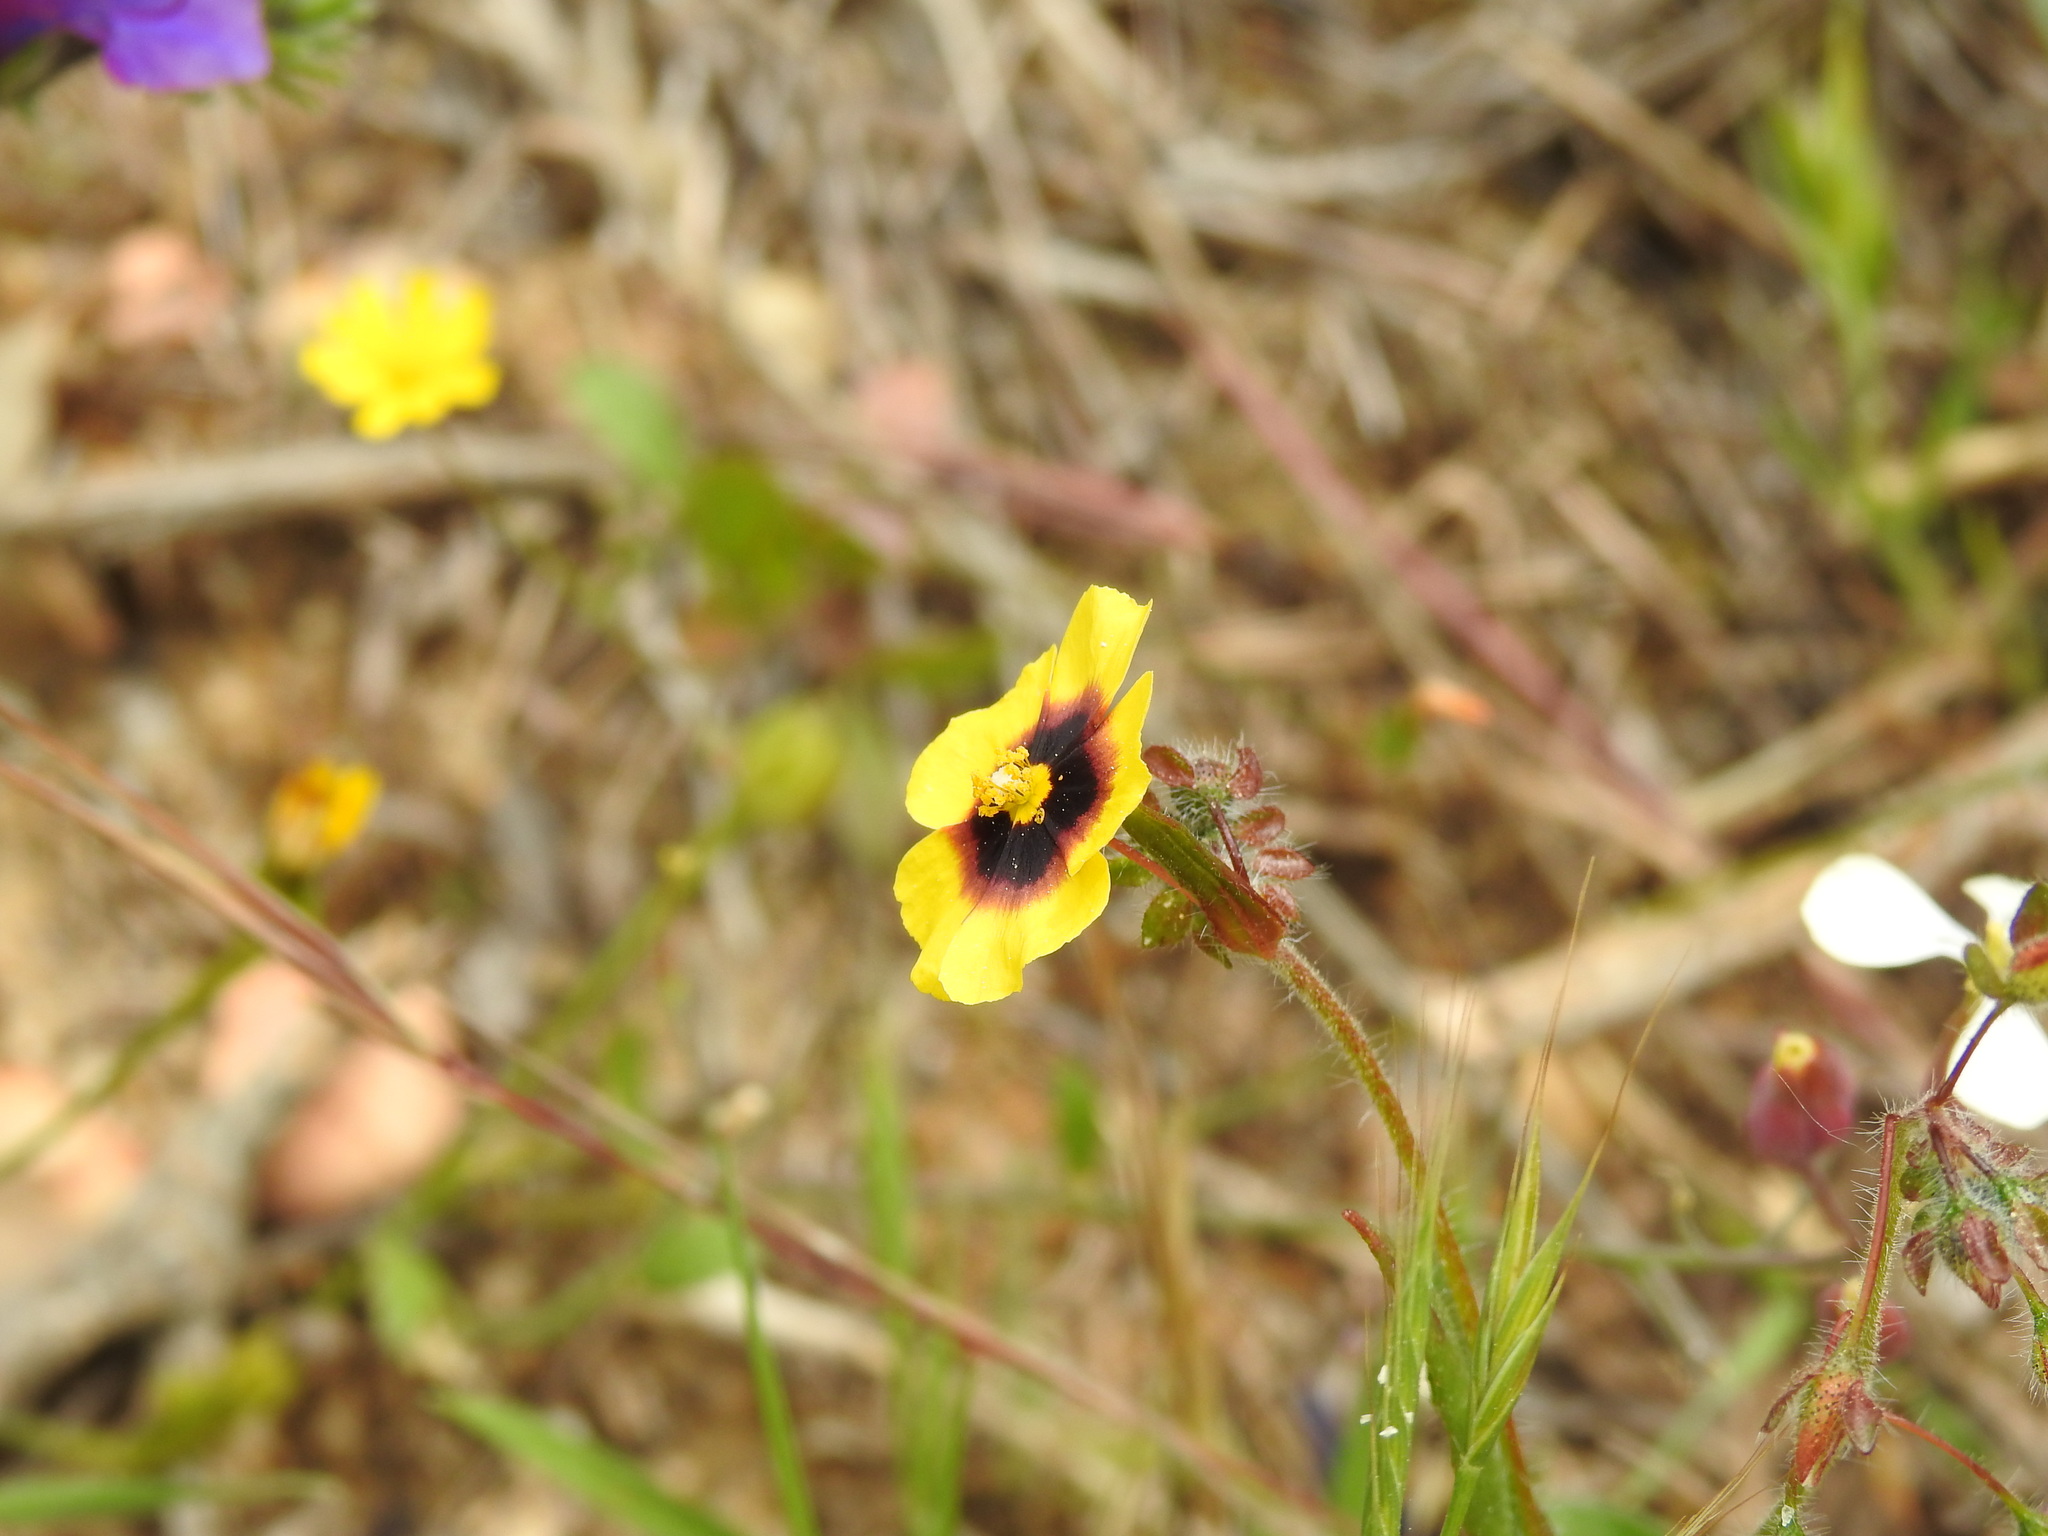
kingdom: Plantae
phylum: Tracheophyta
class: Magnoliopsida
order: Malvales
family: Cistaceae
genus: Tuberaria
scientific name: Tuberaria guttata
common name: Spotted rock-rose
